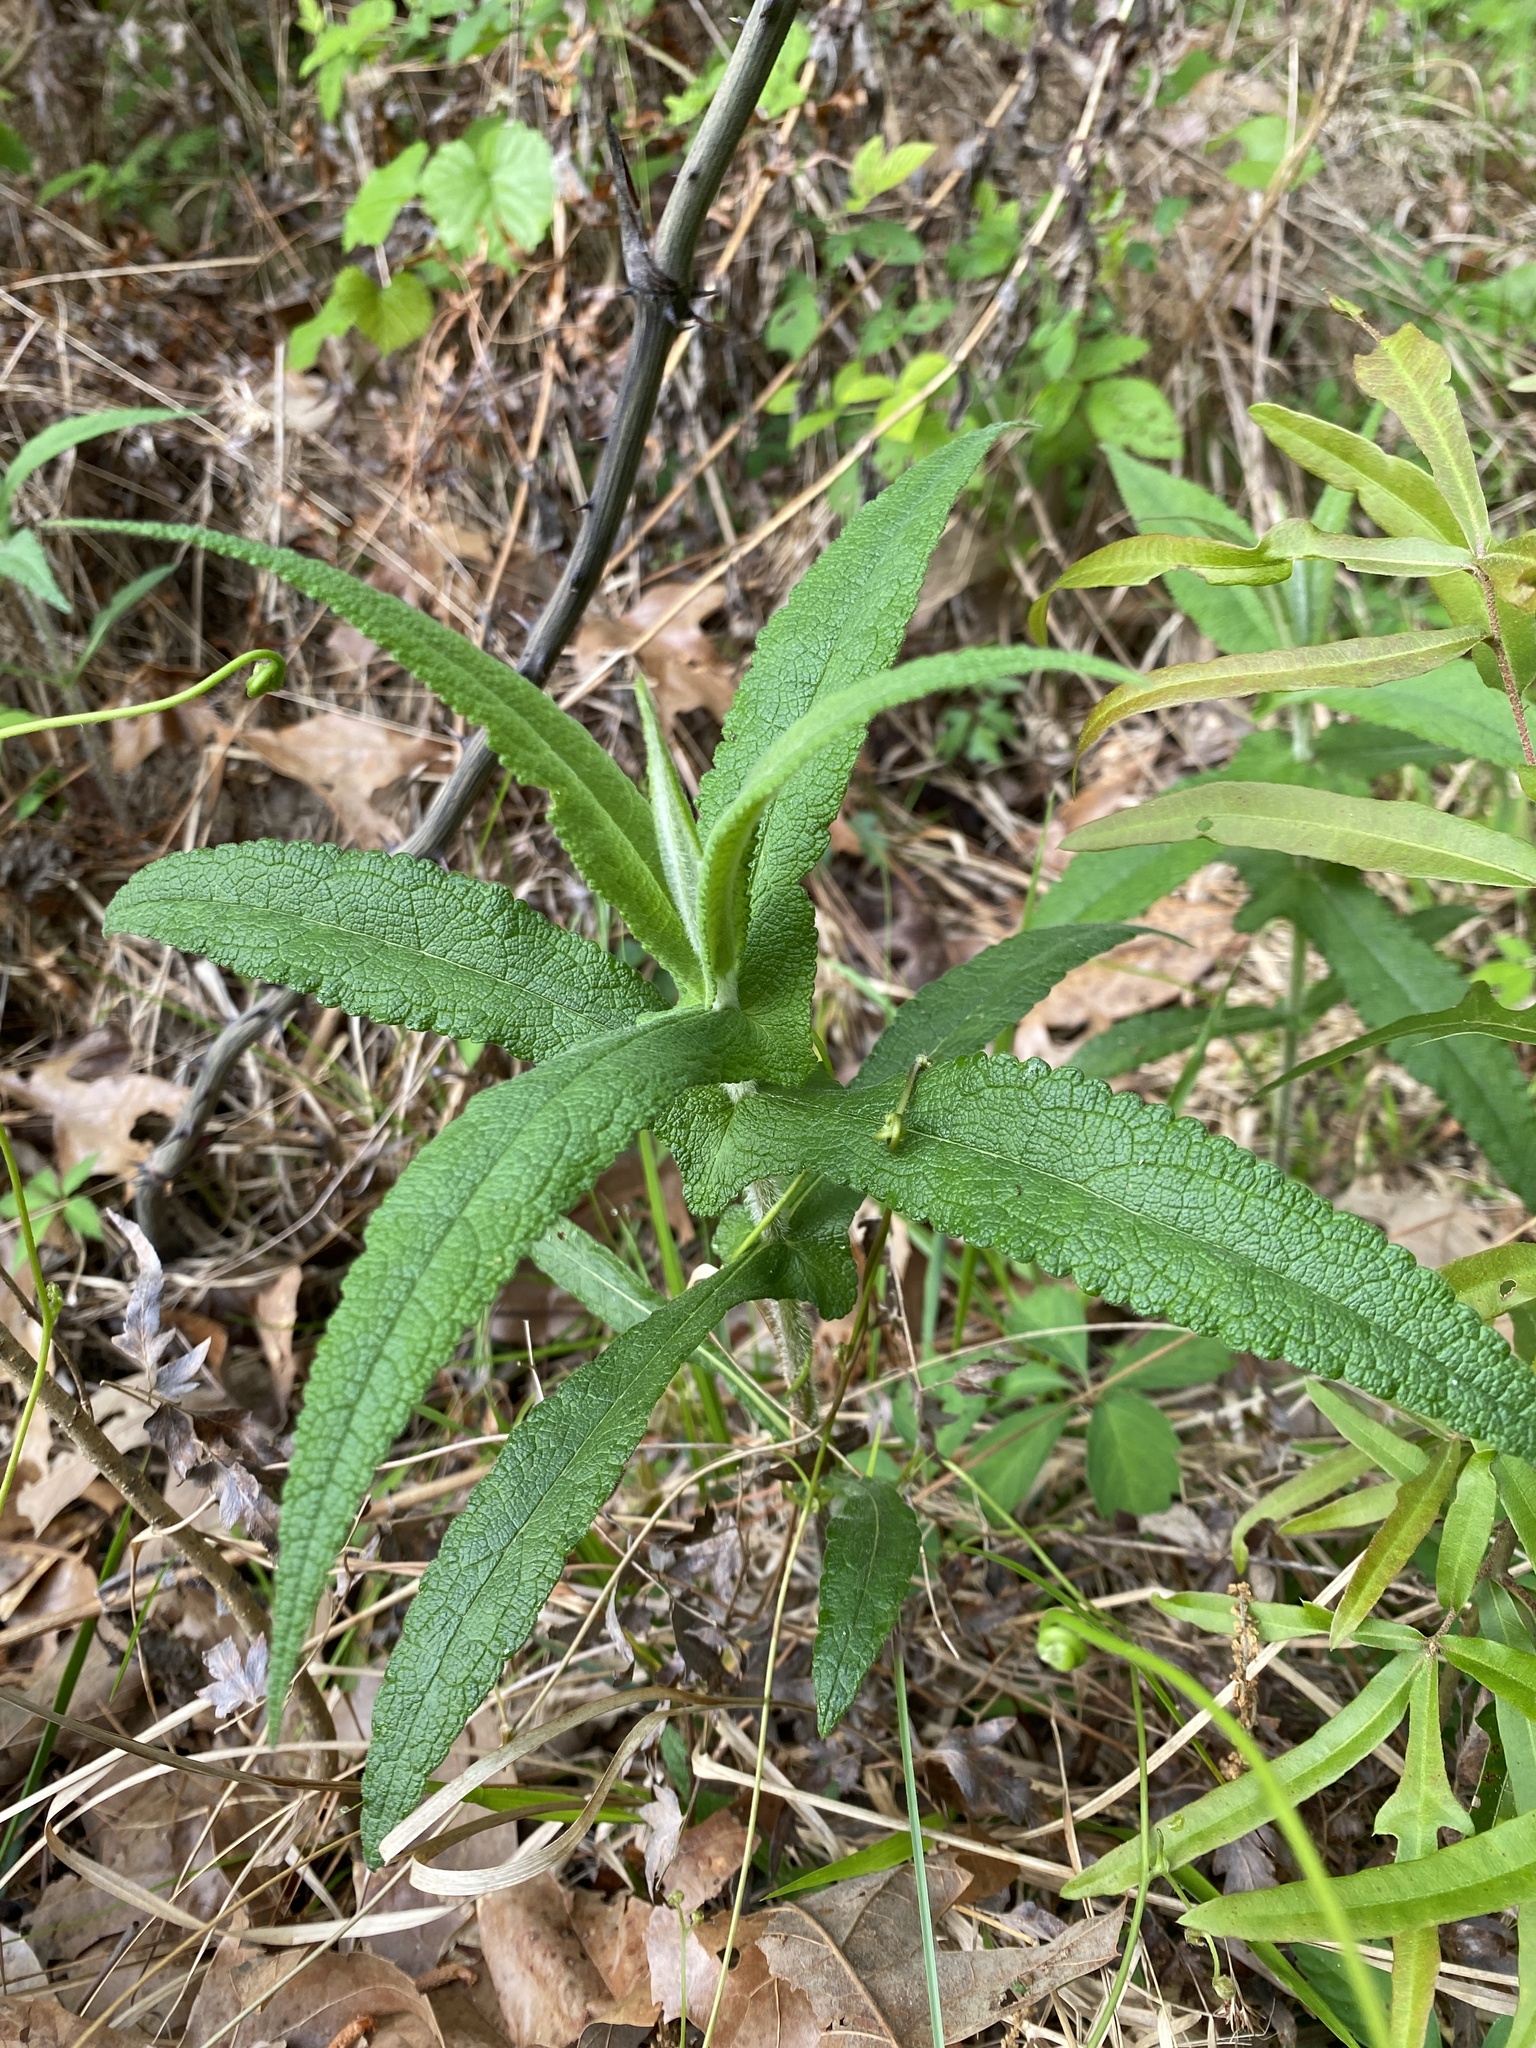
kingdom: Plantae
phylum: Tracheophyta
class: Magnoliopsida
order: Asterales
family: Asteraceae
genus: Eupatorium
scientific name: Eupatorium perfoliatum
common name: Boneset
